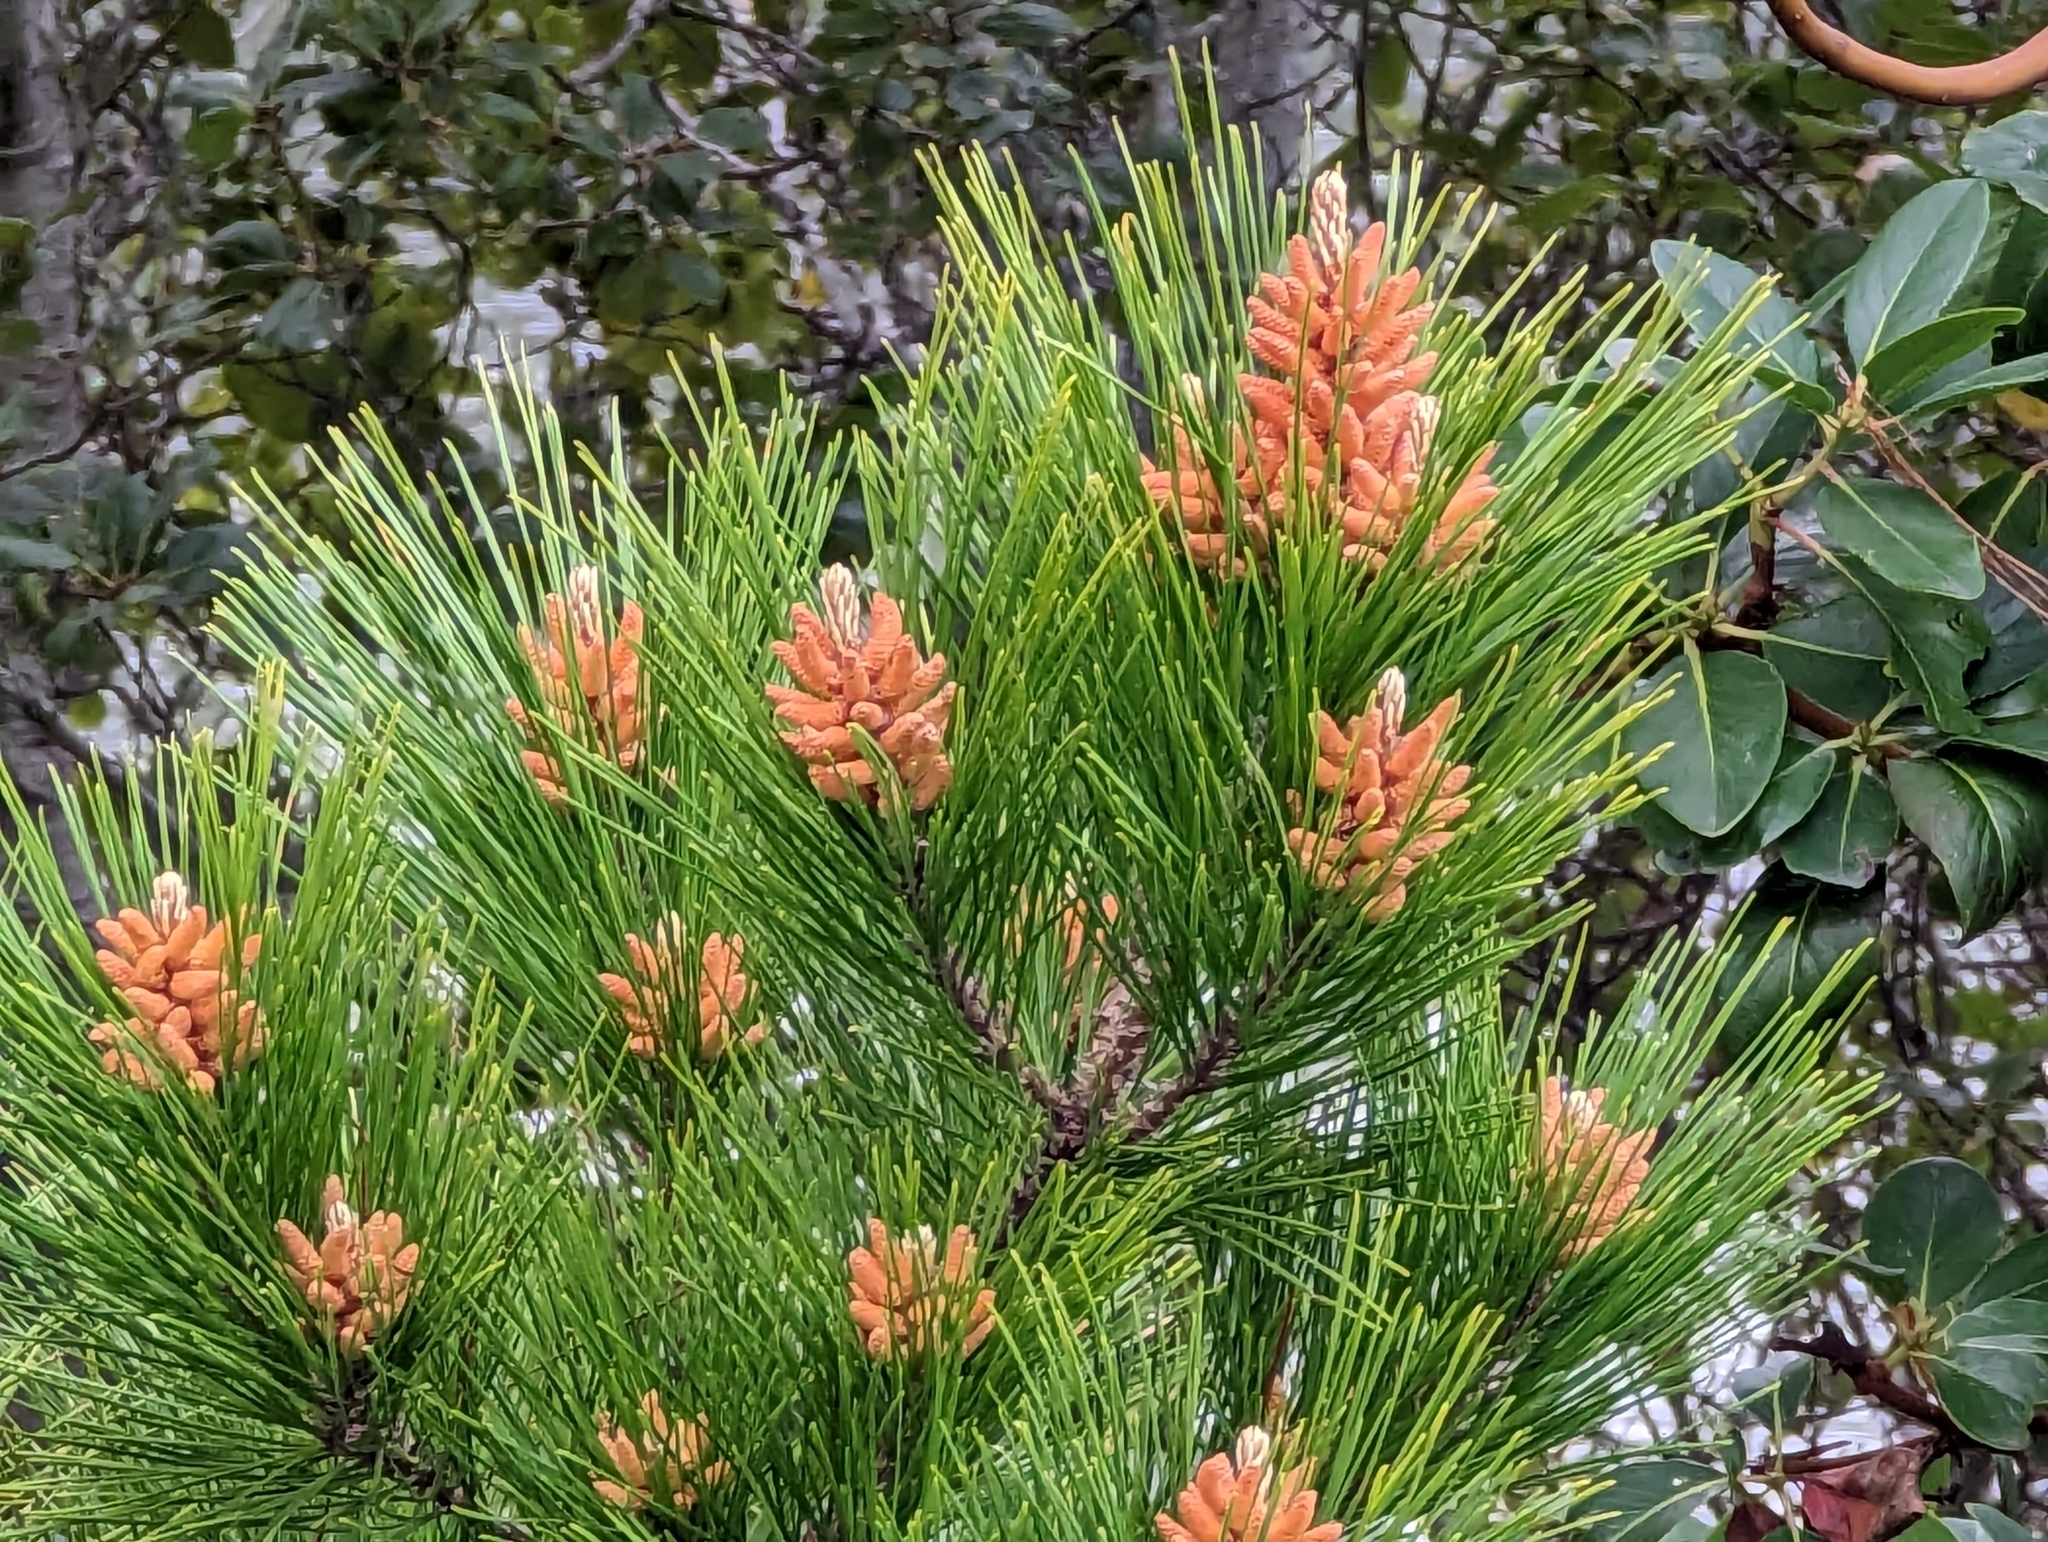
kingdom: Plantae
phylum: Tracheophyta
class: Pinopsida
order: Pinales
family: Pinaceae
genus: Pinus
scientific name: Pinus radiata
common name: Monterey pine
